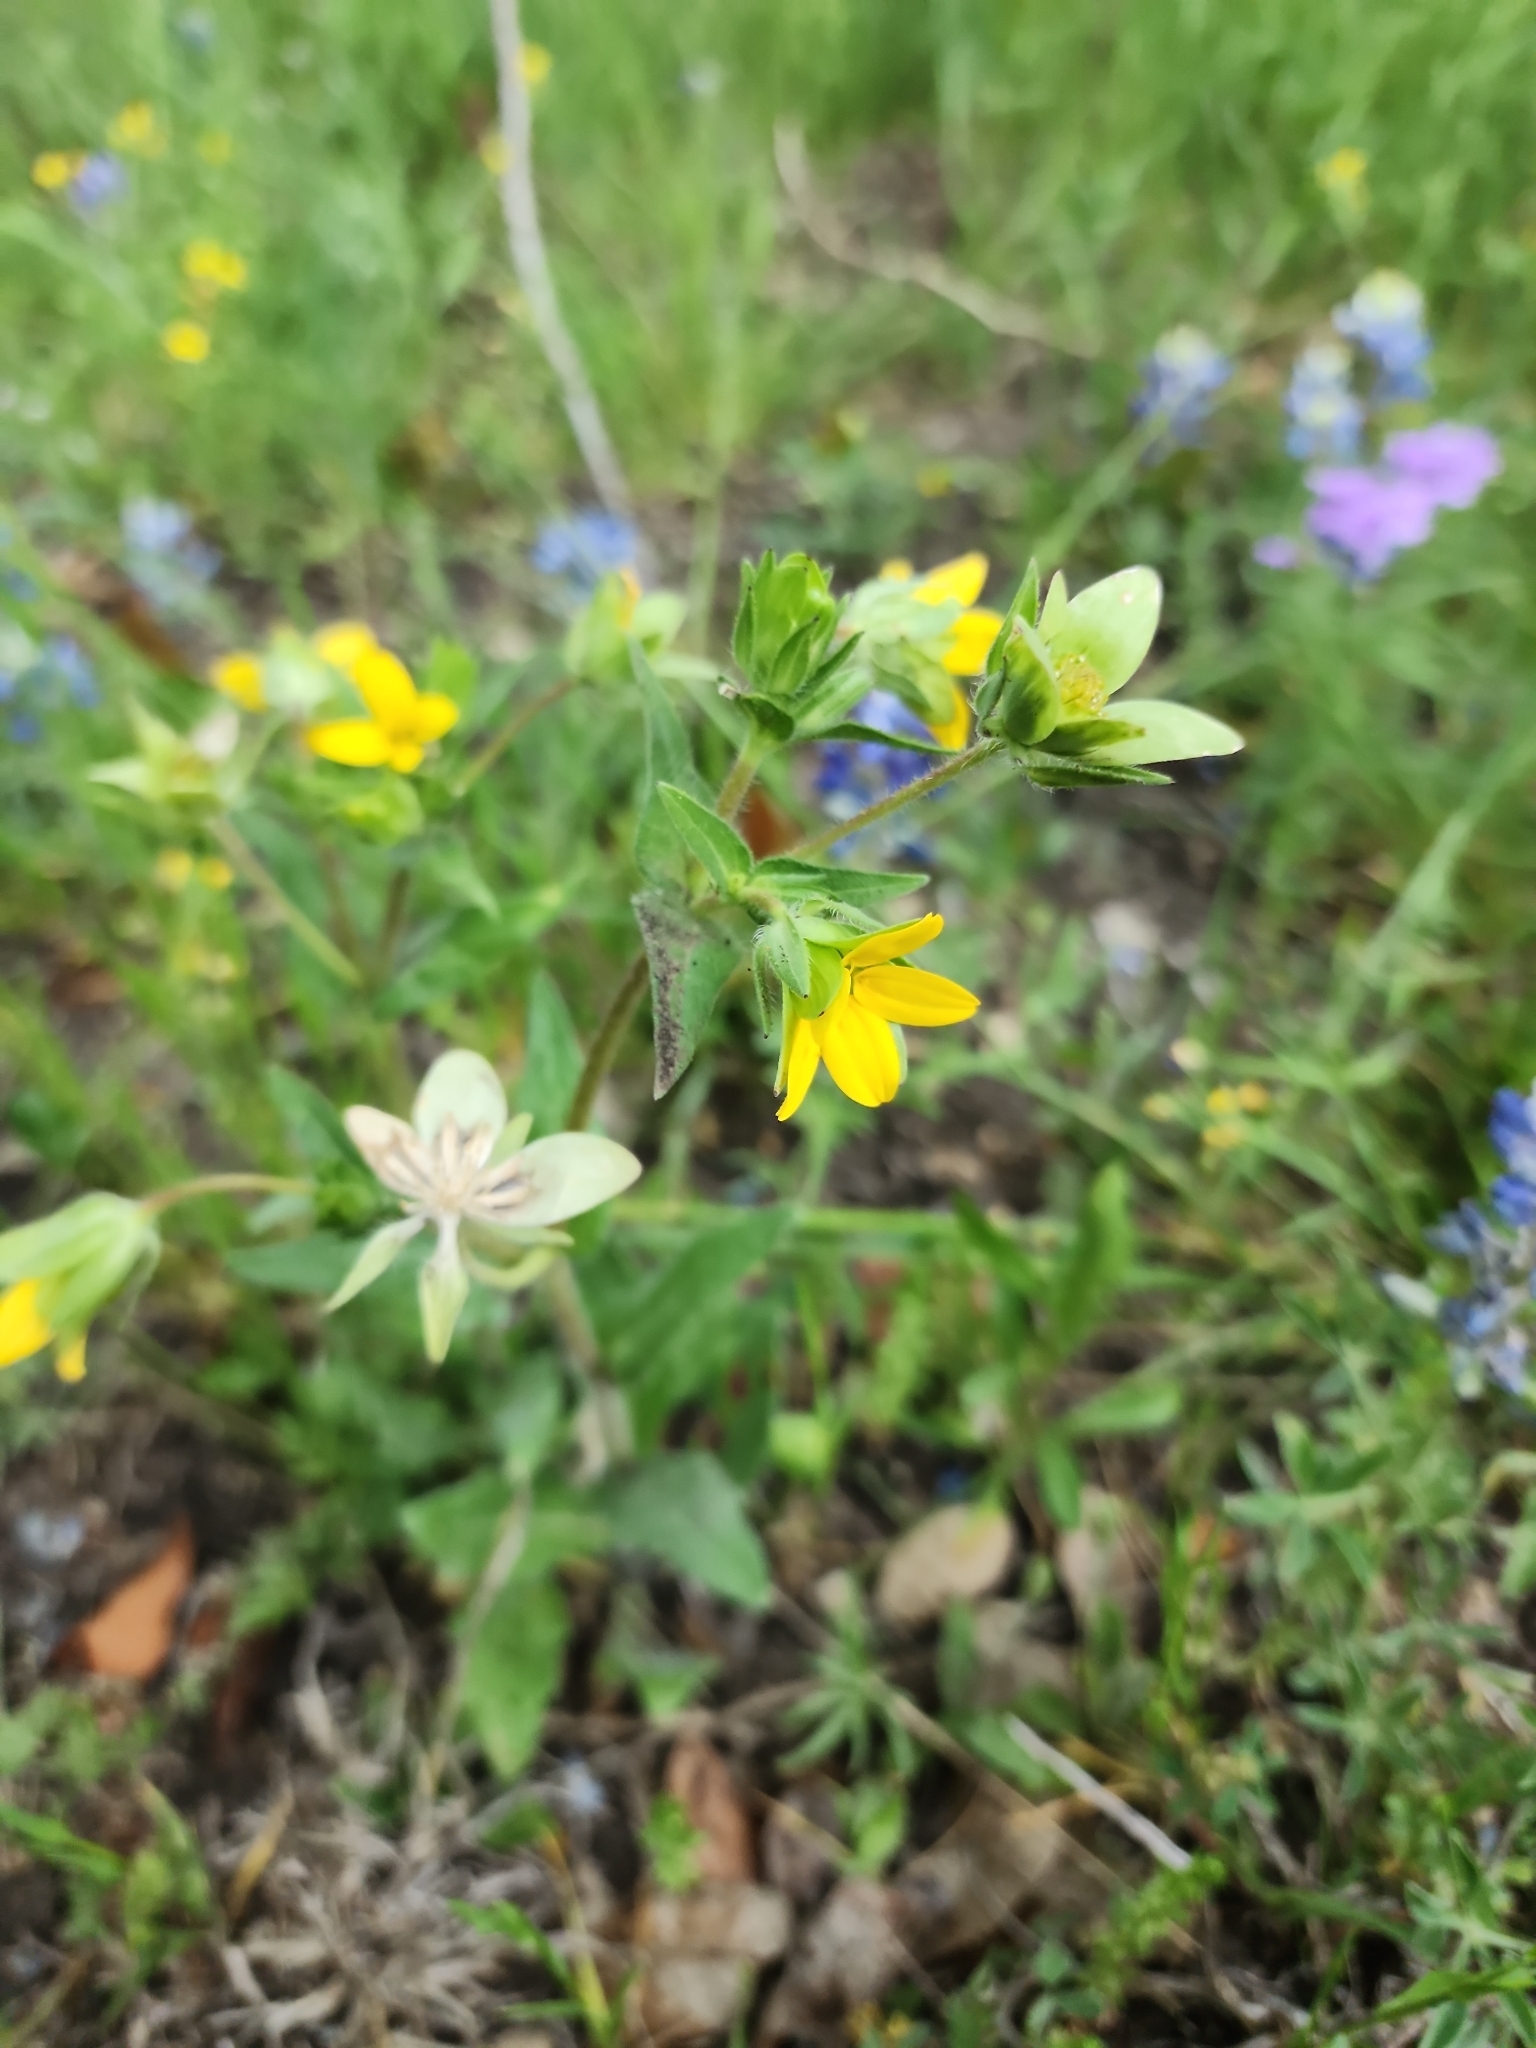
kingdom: Plantae
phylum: Tracheophyta
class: Magnoliopsida
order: Asterales
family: Asteraceae
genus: Lindheimera
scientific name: Lindheimera texana
